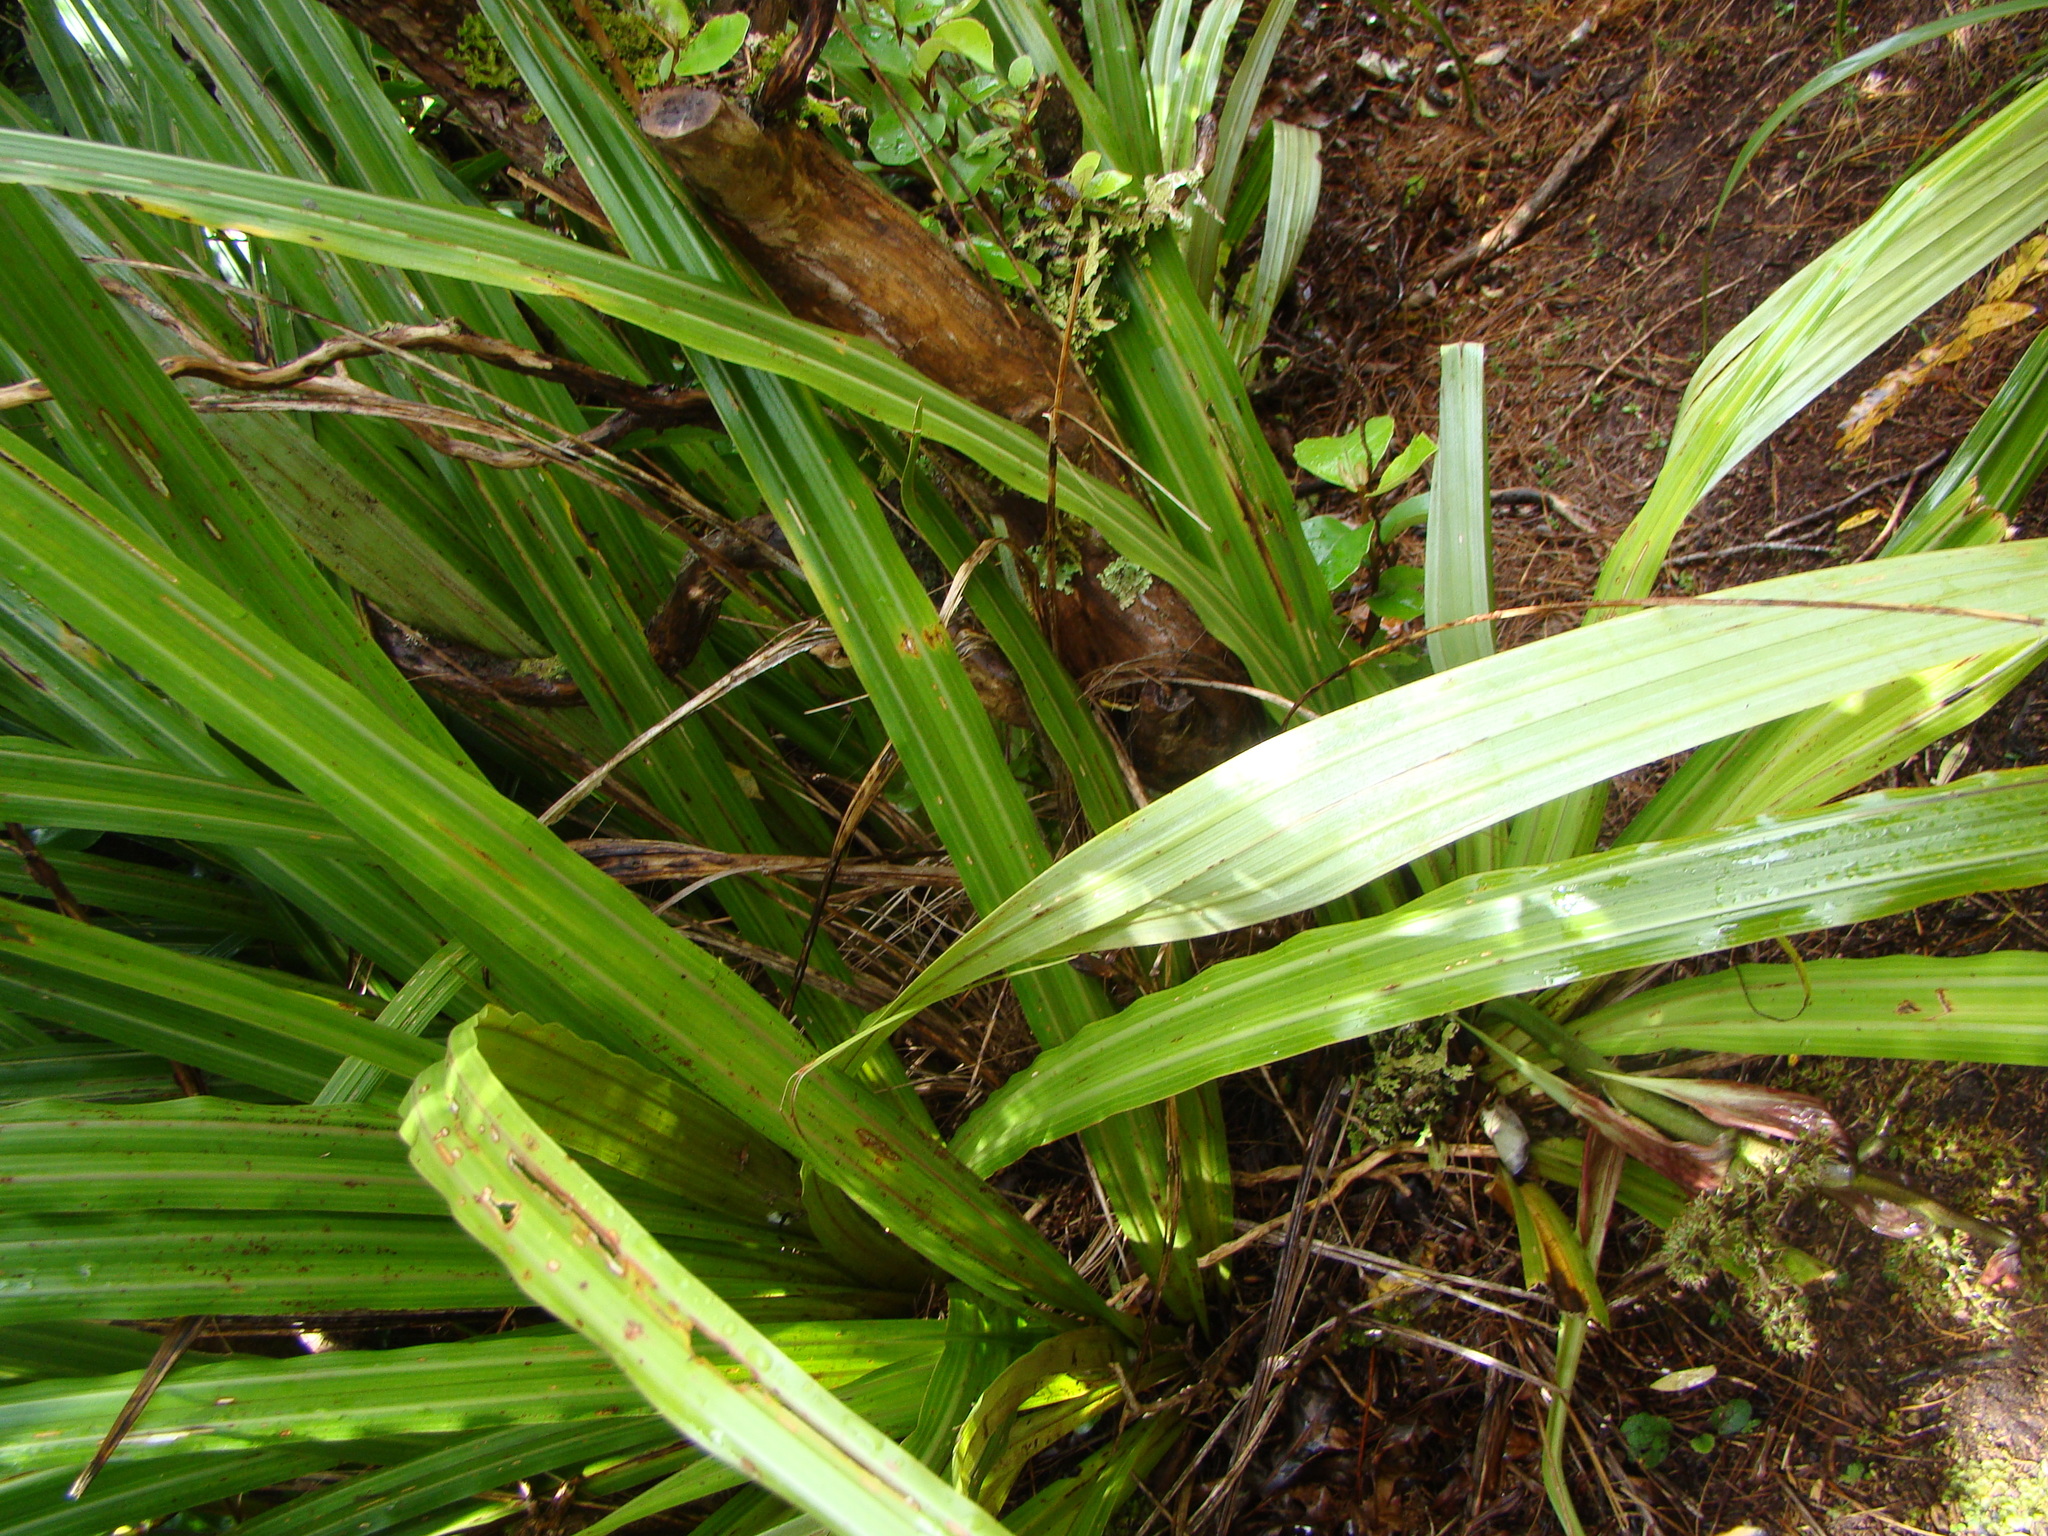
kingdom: Plantae
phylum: Tracheophyta
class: Liliopsida
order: Asparagales
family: Asteliaceae
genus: Astelia
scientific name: Astelia fragrans
